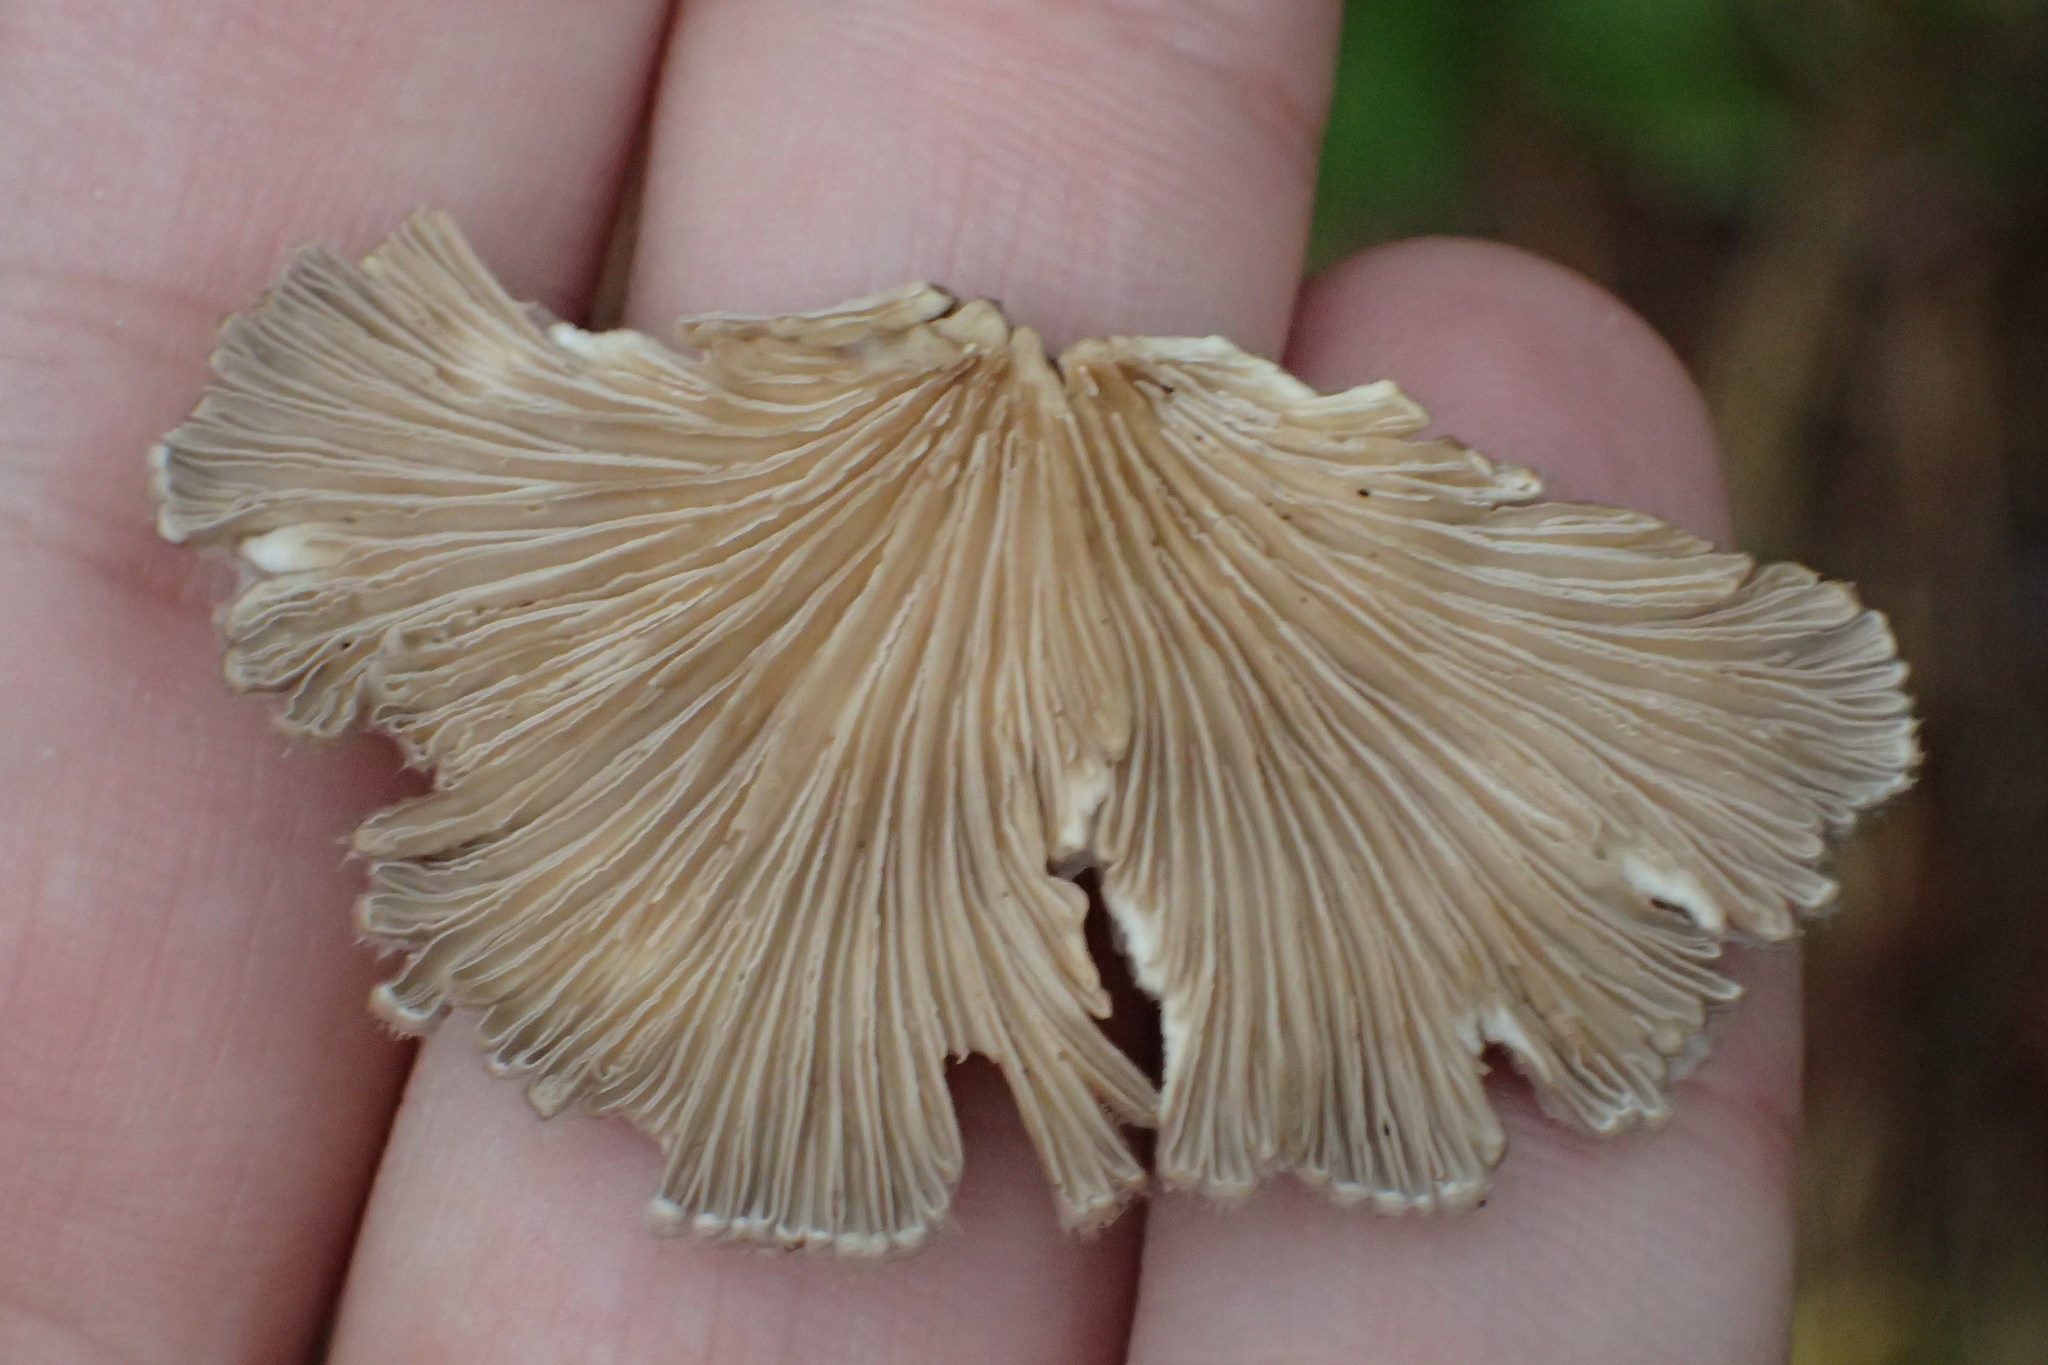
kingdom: Fungi
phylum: Basidiomycota
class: Agaricomycetes
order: Agaricales
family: Schizophyllaceae
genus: Schizophyllum
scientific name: Schizophyllum commune
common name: Common porecrust
